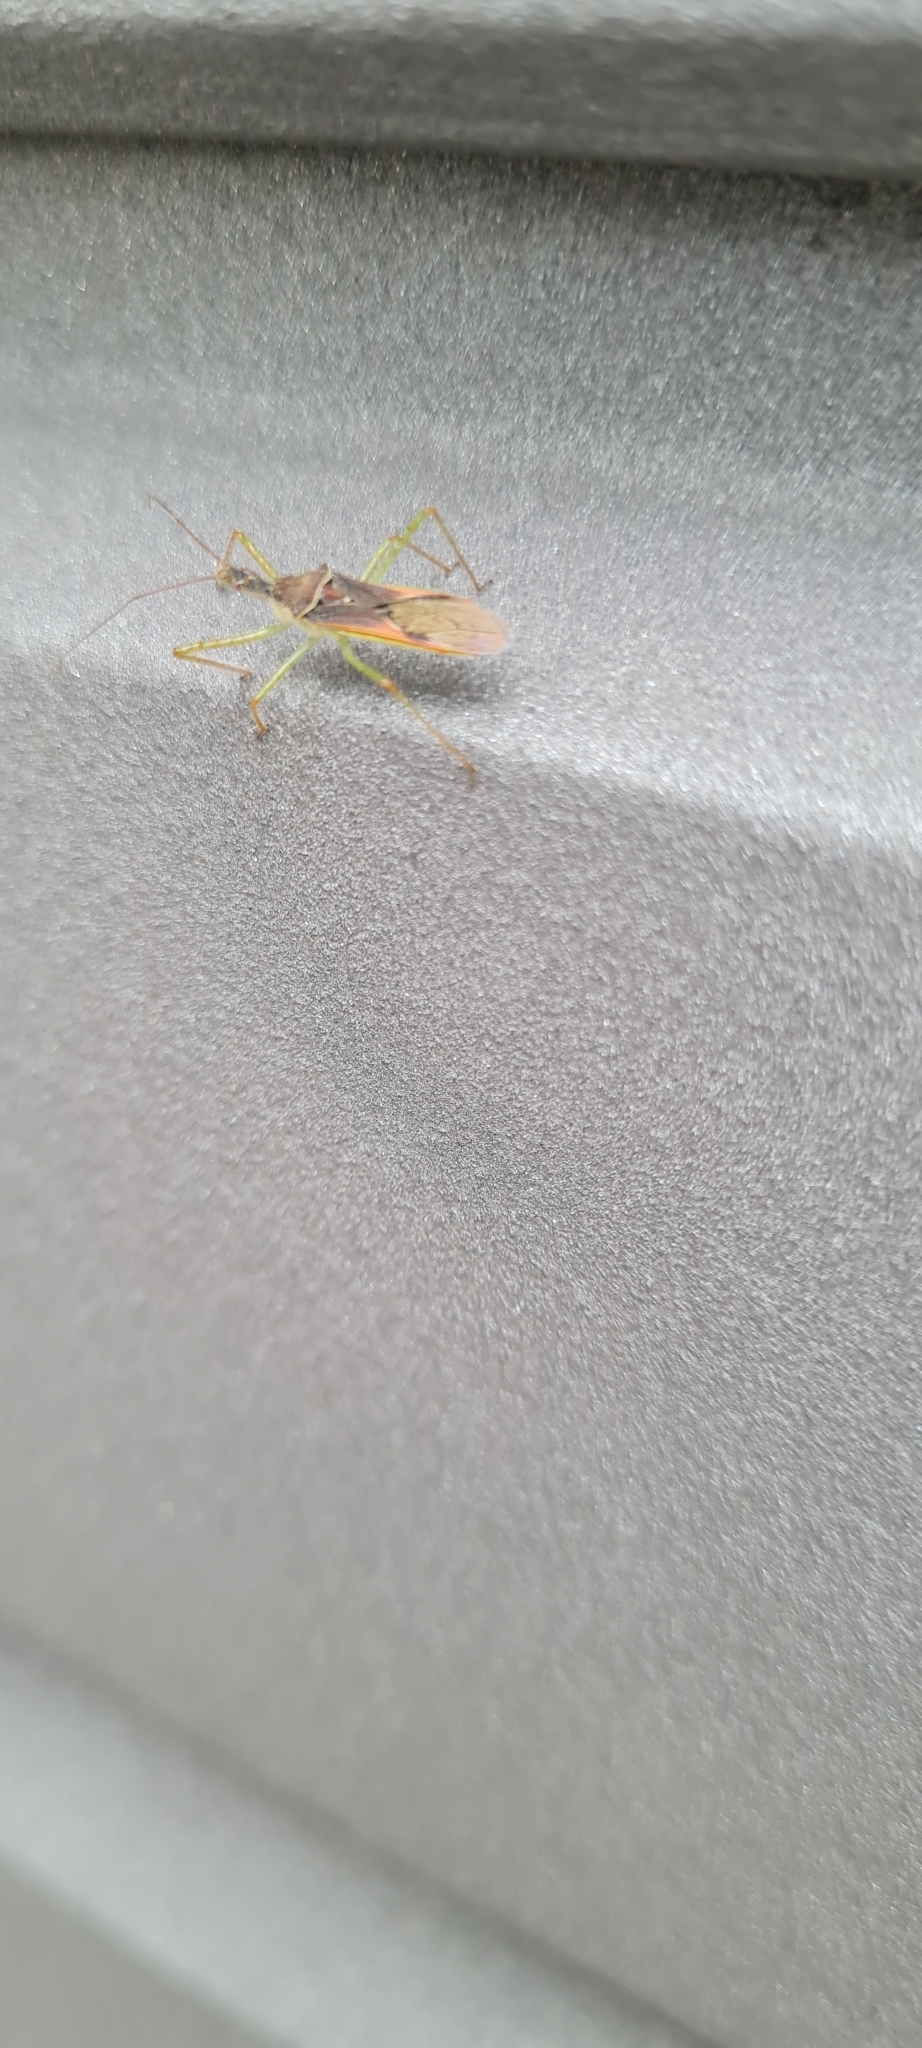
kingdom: Animalia
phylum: Arthropoda
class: Insecta
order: Hemiptera
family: Reduviidae
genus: Zelus
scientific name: Zelus renardii
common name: Assassin bug
